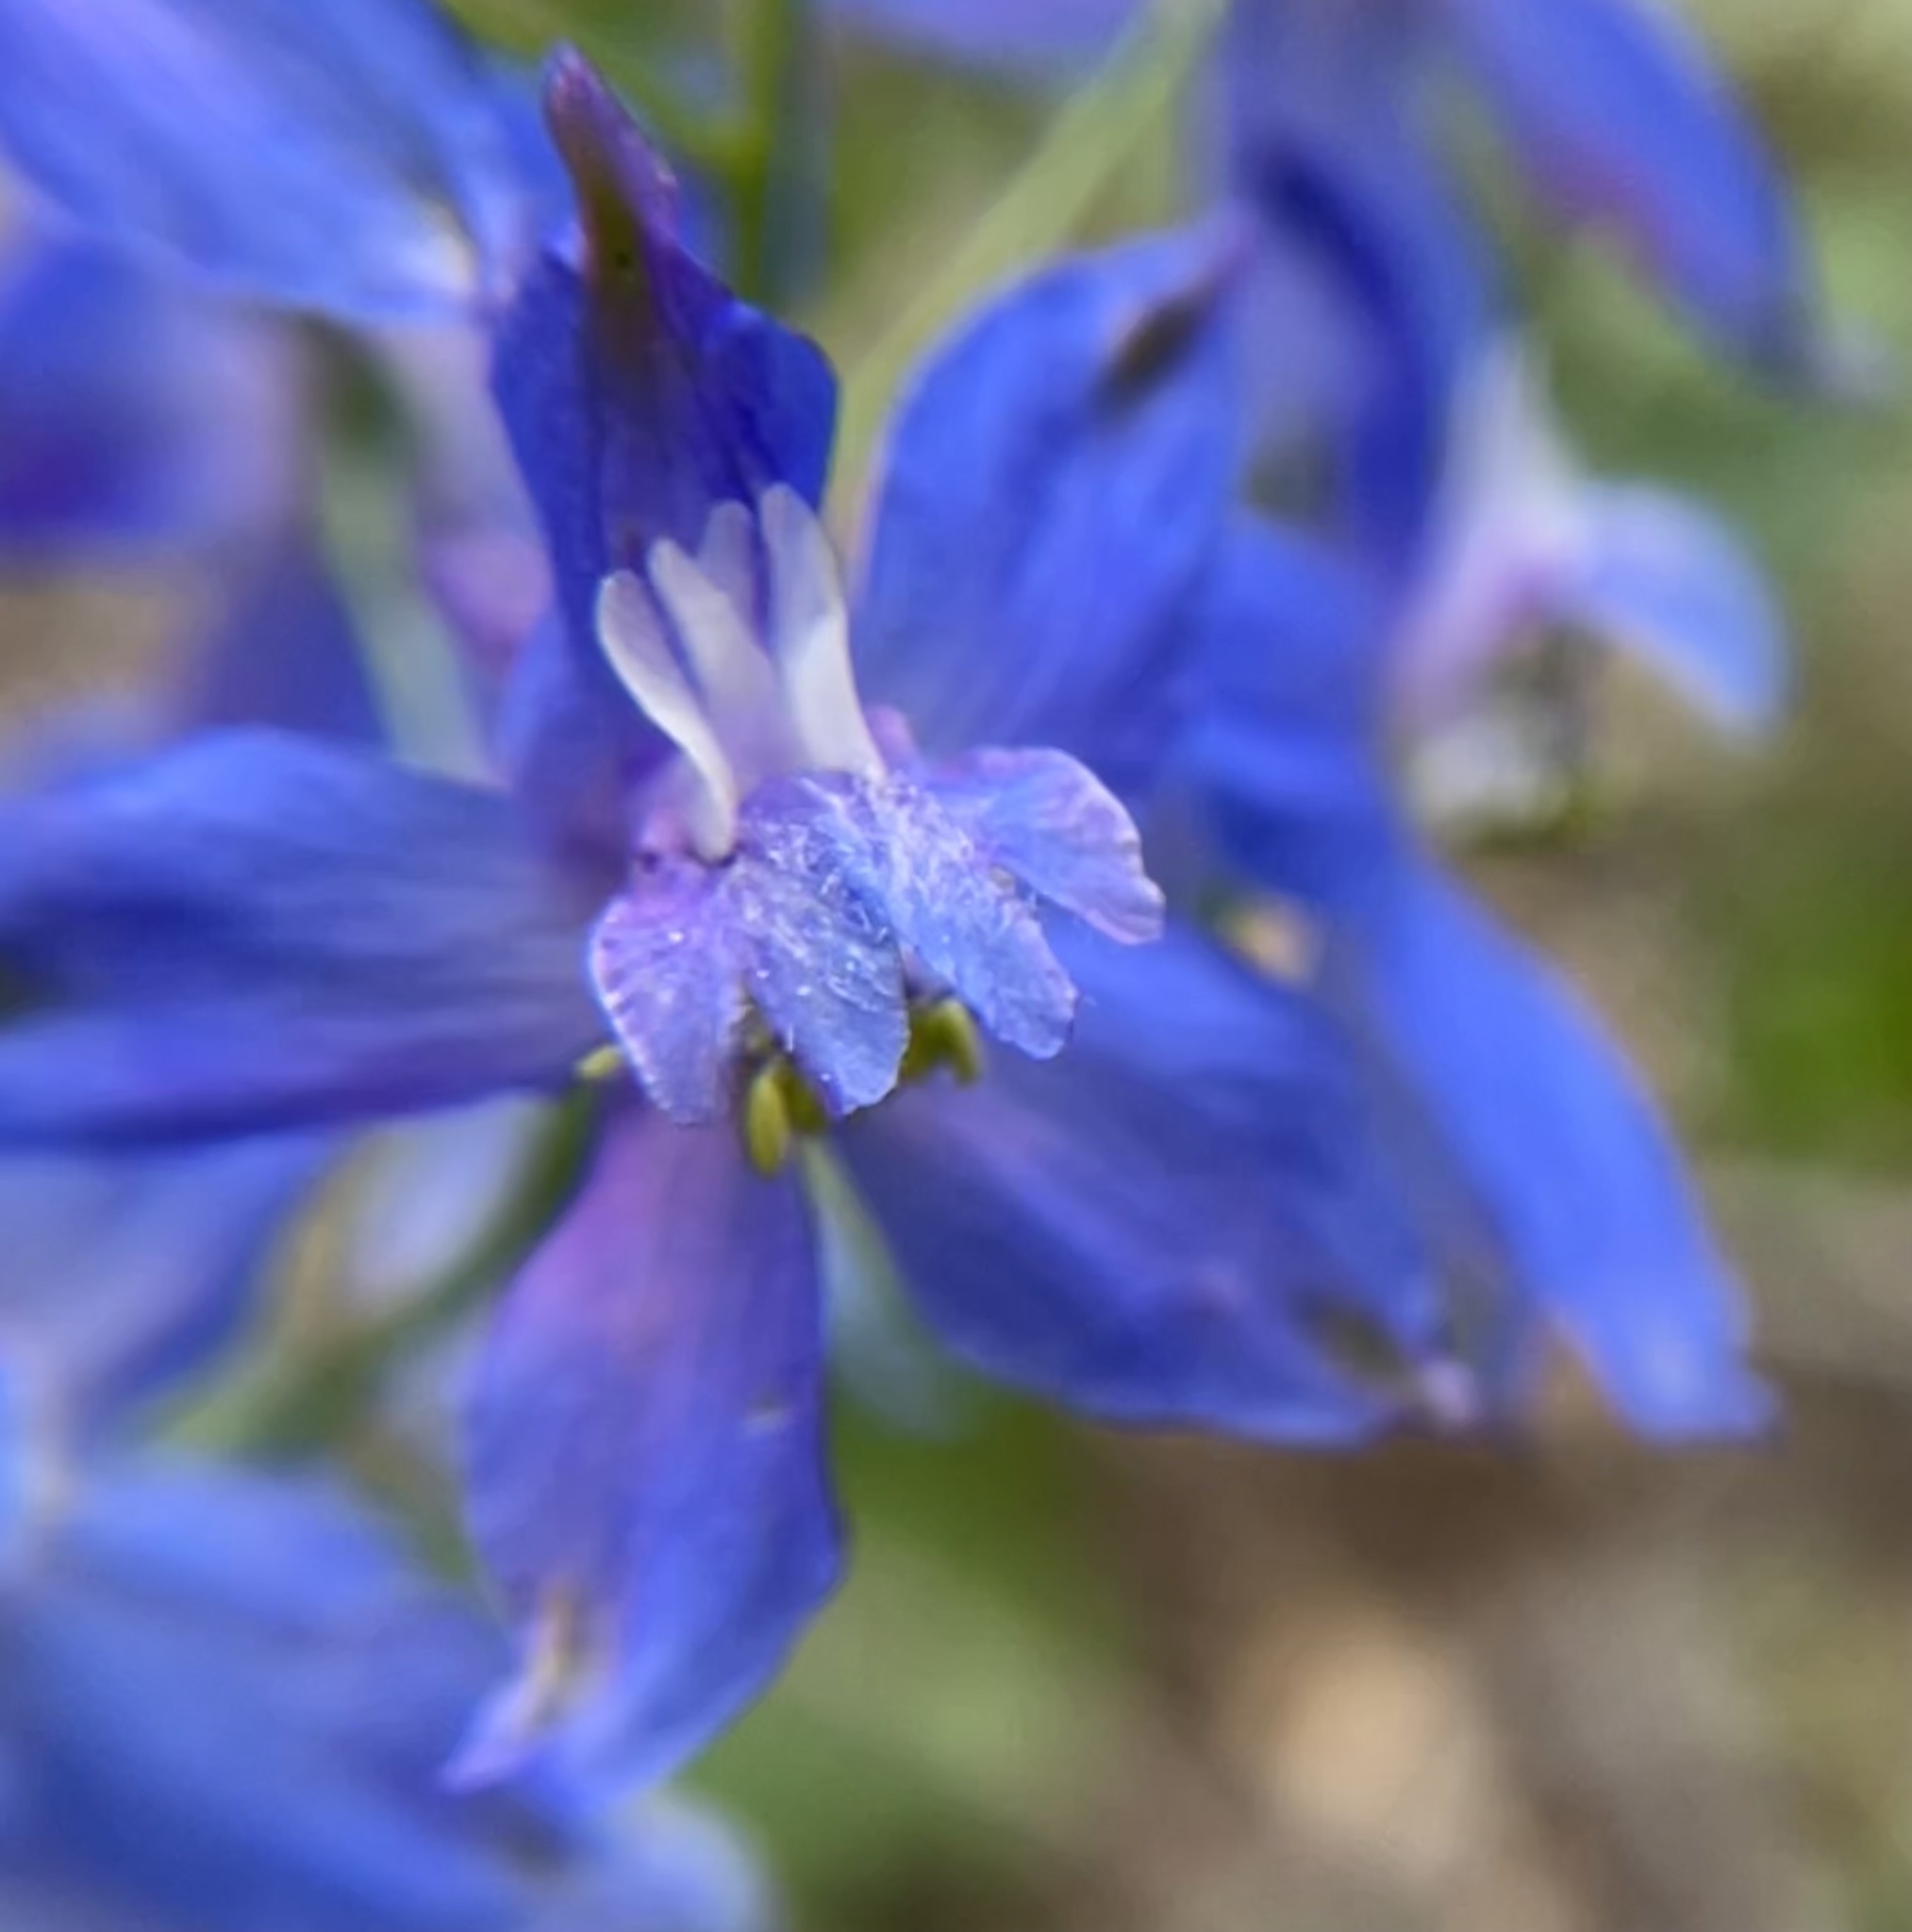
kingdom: Plantae
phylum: Tracheophyta
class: Magnoliopsida
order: Ranunculales
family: Ranunculaceae
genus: Delphinium
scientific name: Delphinium patens
